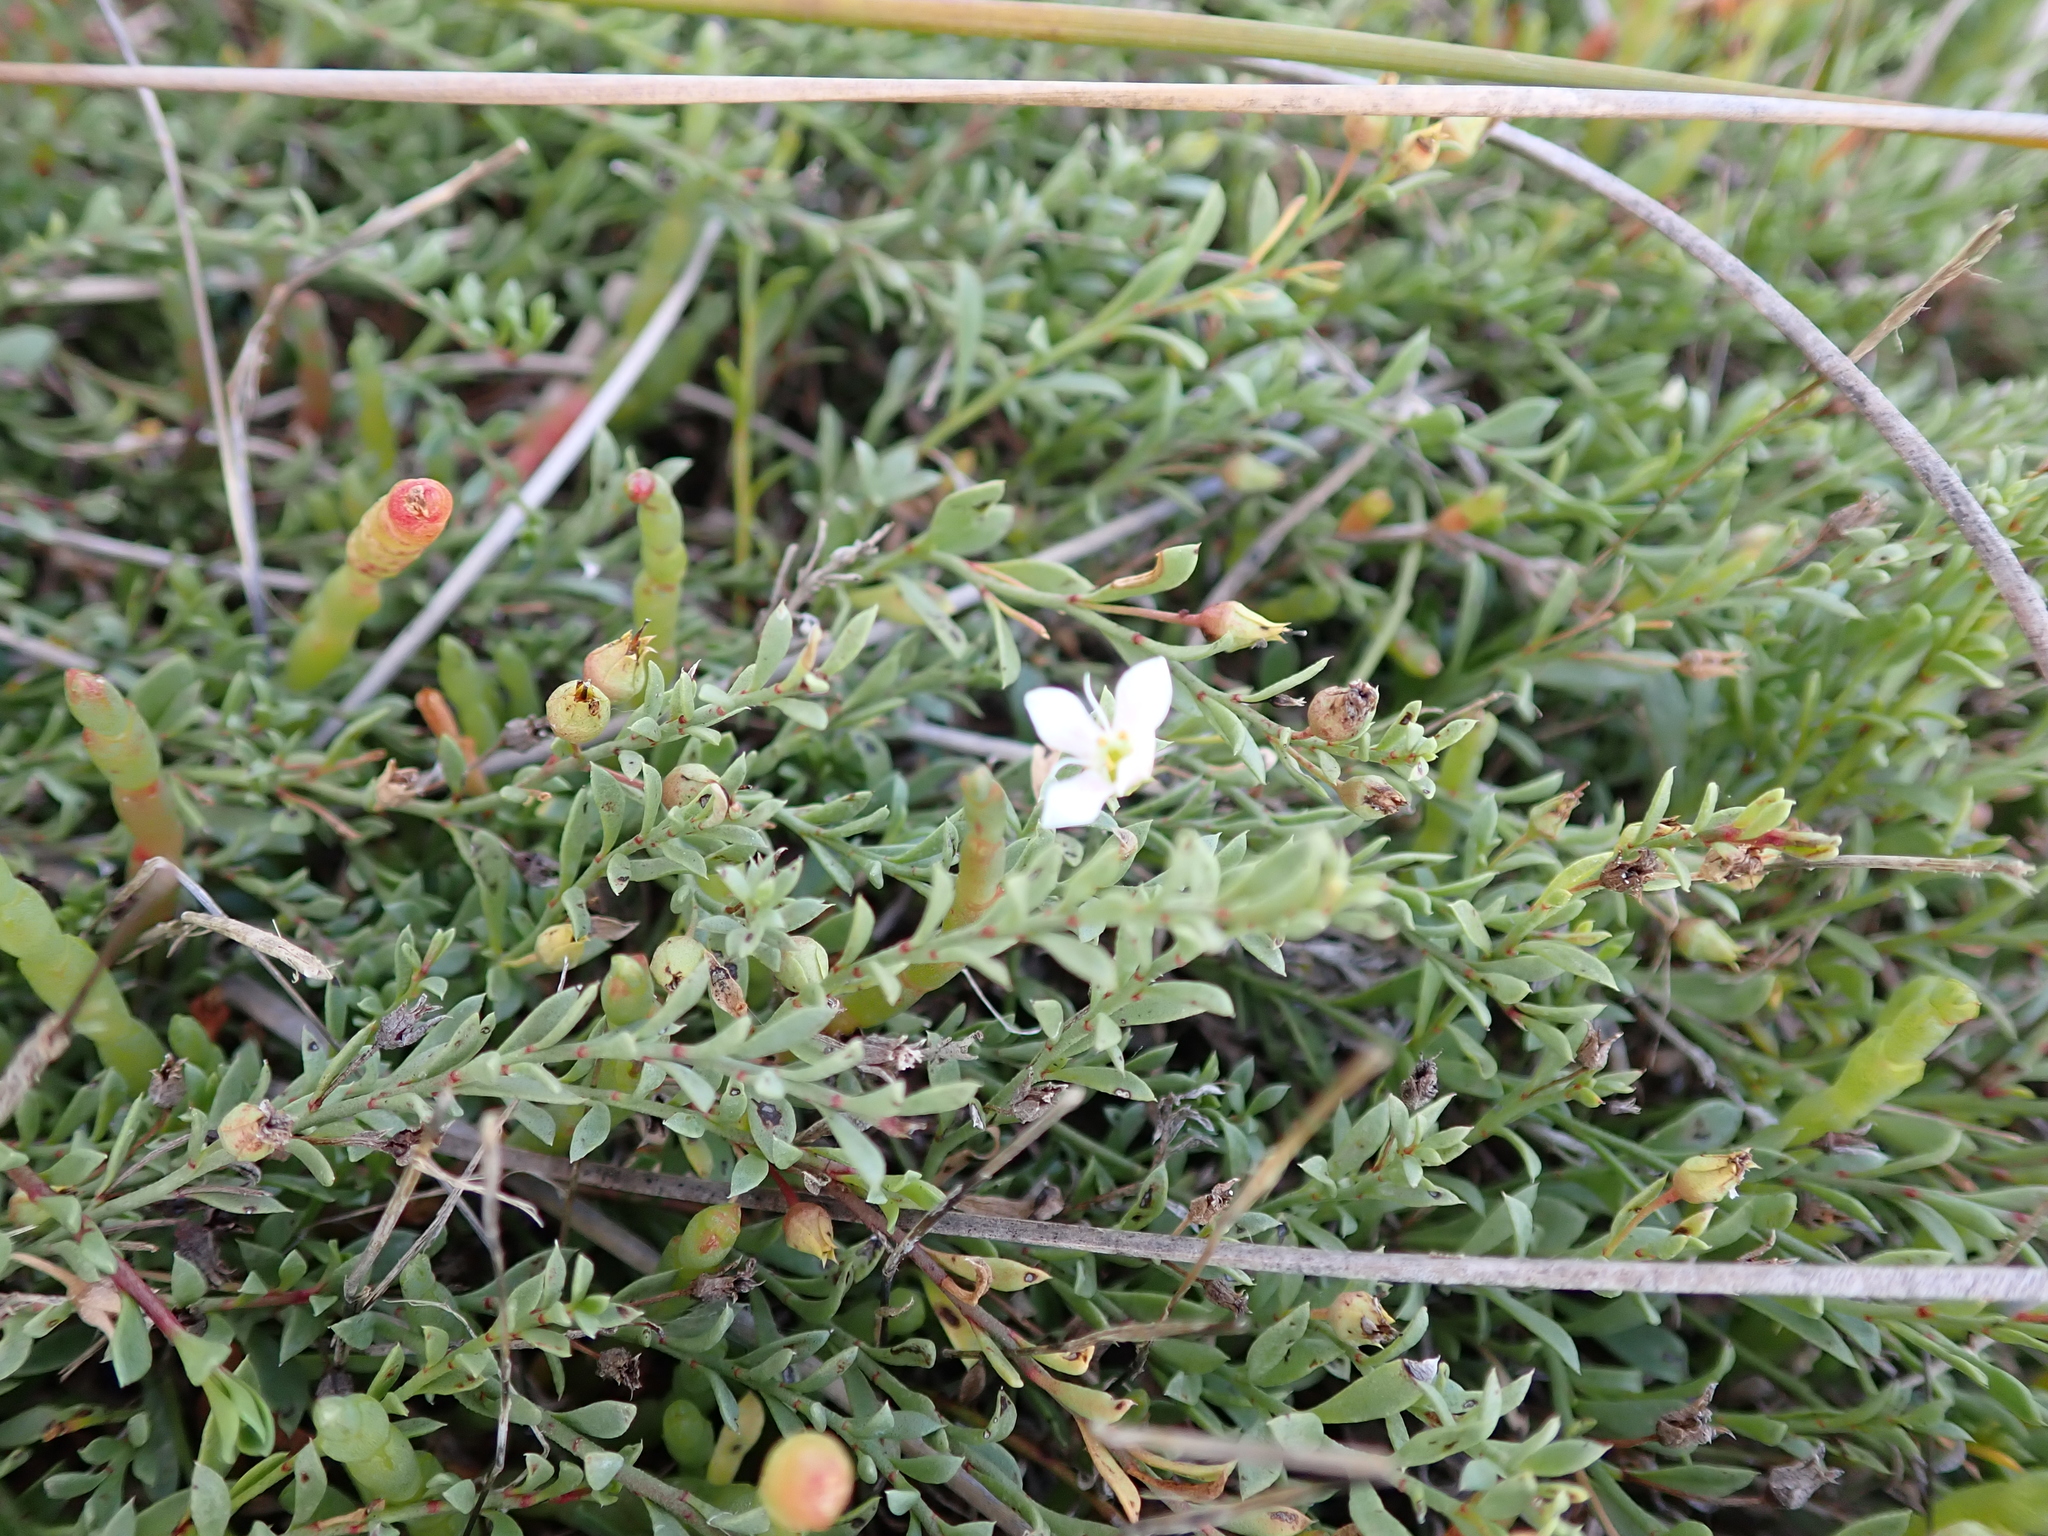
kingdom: Plantae
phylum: Tracheophyta
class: Magnoliopsida
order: Ericales
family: Primulaceae
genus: Samolus
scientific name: Samolus repens
